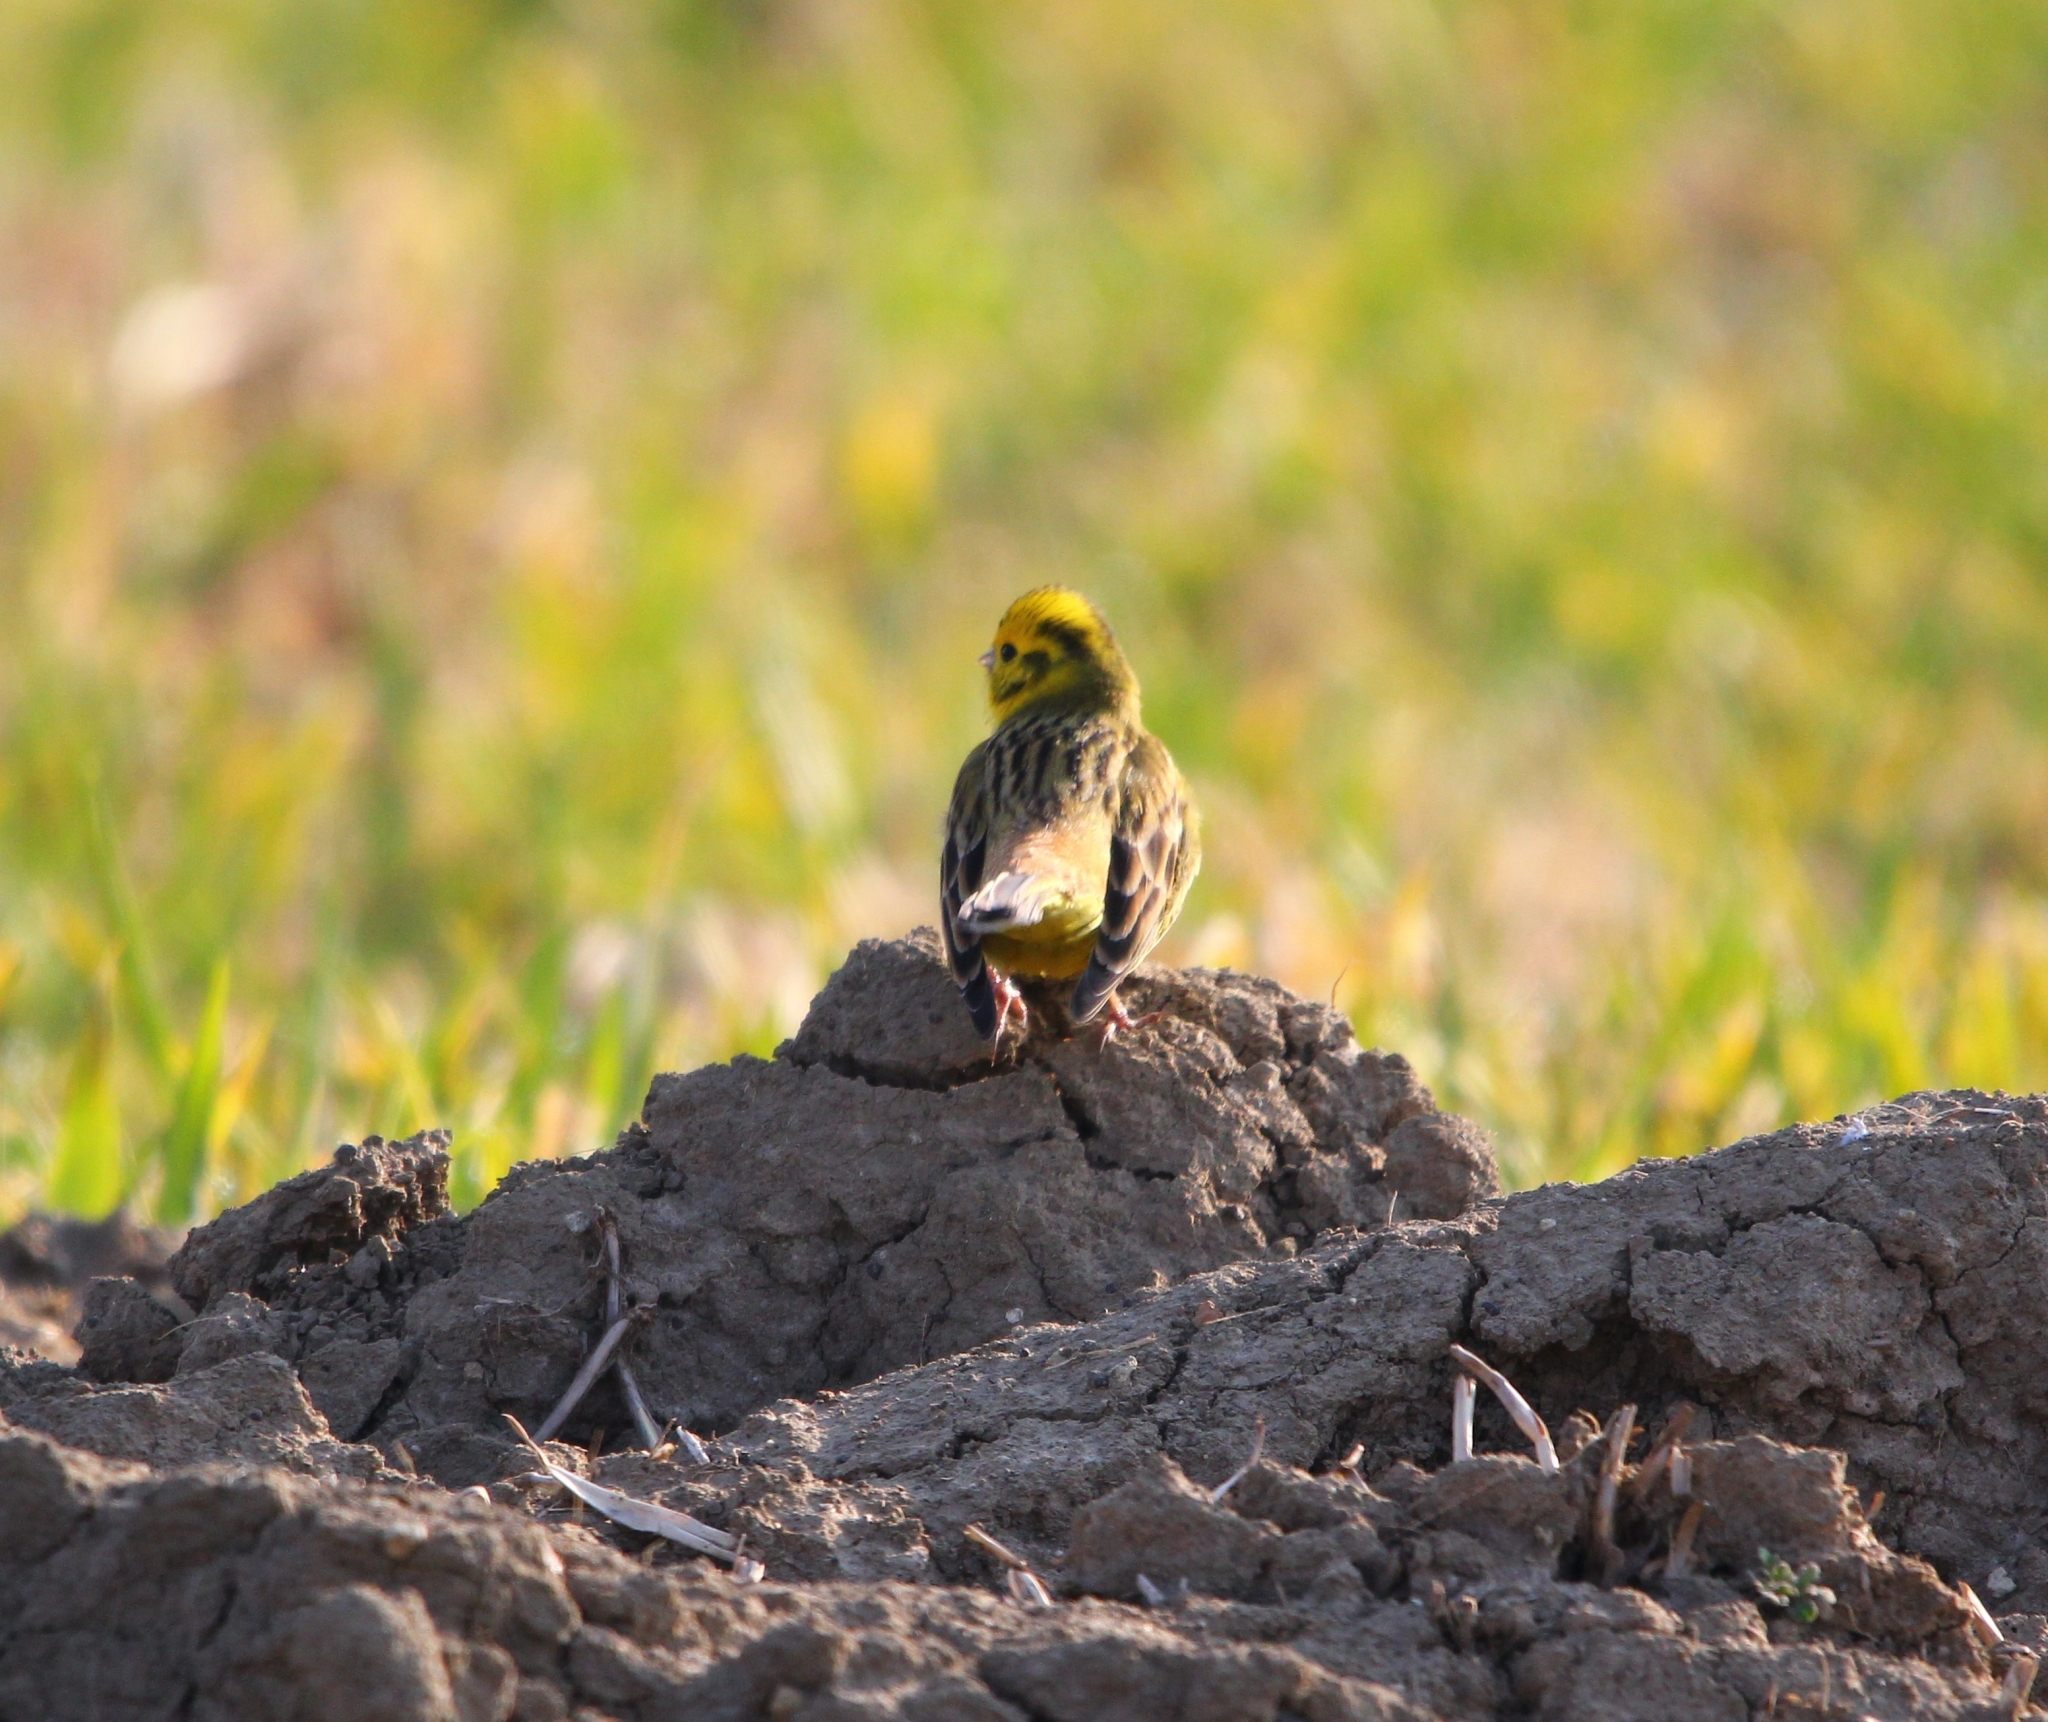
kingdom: Animalia
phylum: Chordata
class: Aves
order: Passeriformes
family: Emberizidae
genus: Emberiza
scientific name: Emberiza citrinella
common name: Yellowhammer
